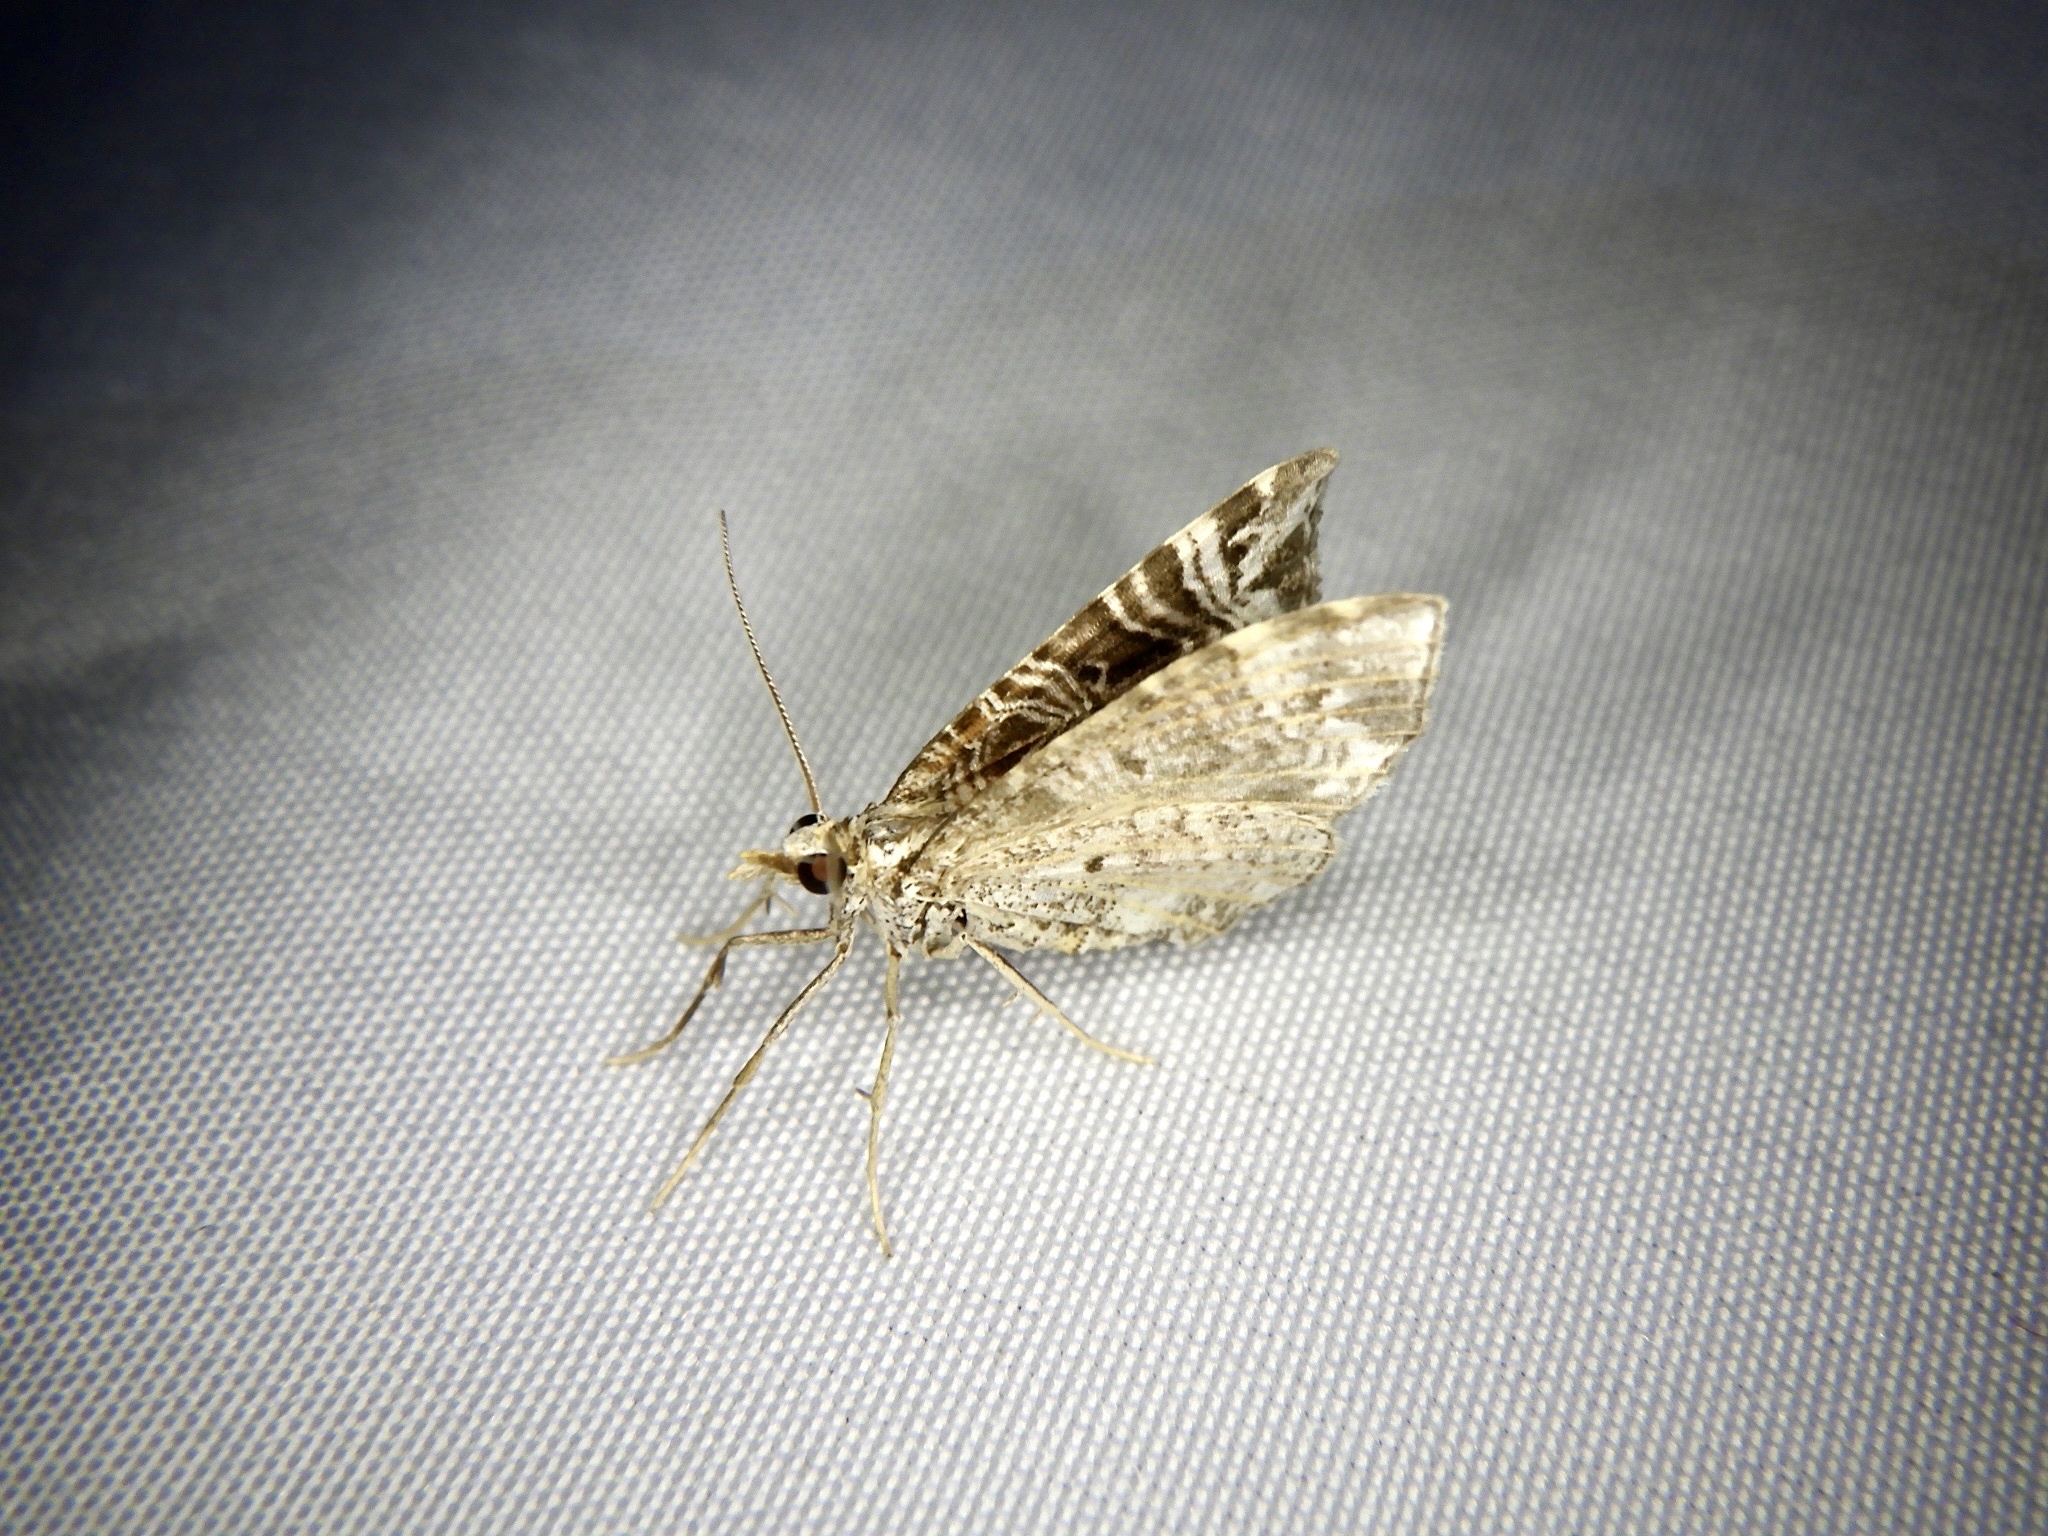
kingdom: Animalia
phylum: Arthropoda
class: Insecta
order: Lepidoptera
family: Geometridae
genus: Microlygris
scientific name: Microlygris multistriata
